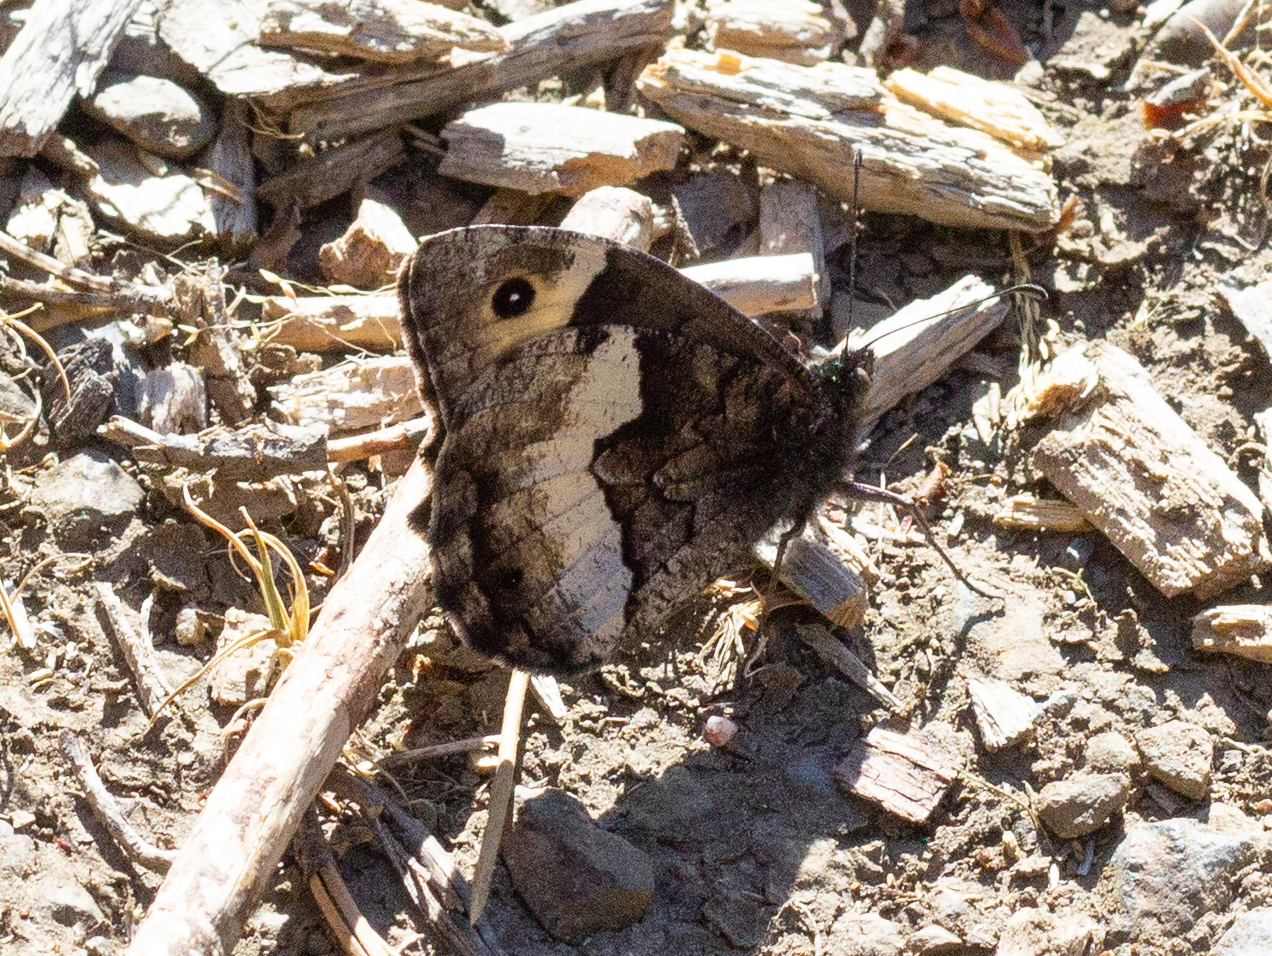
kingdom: Animalia
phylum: Arthropoda
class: Insecta
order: Lepidoptera
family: Nymphalidae
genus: Hipparchia
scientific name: Hipparchia hermione
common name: Rock grayling
